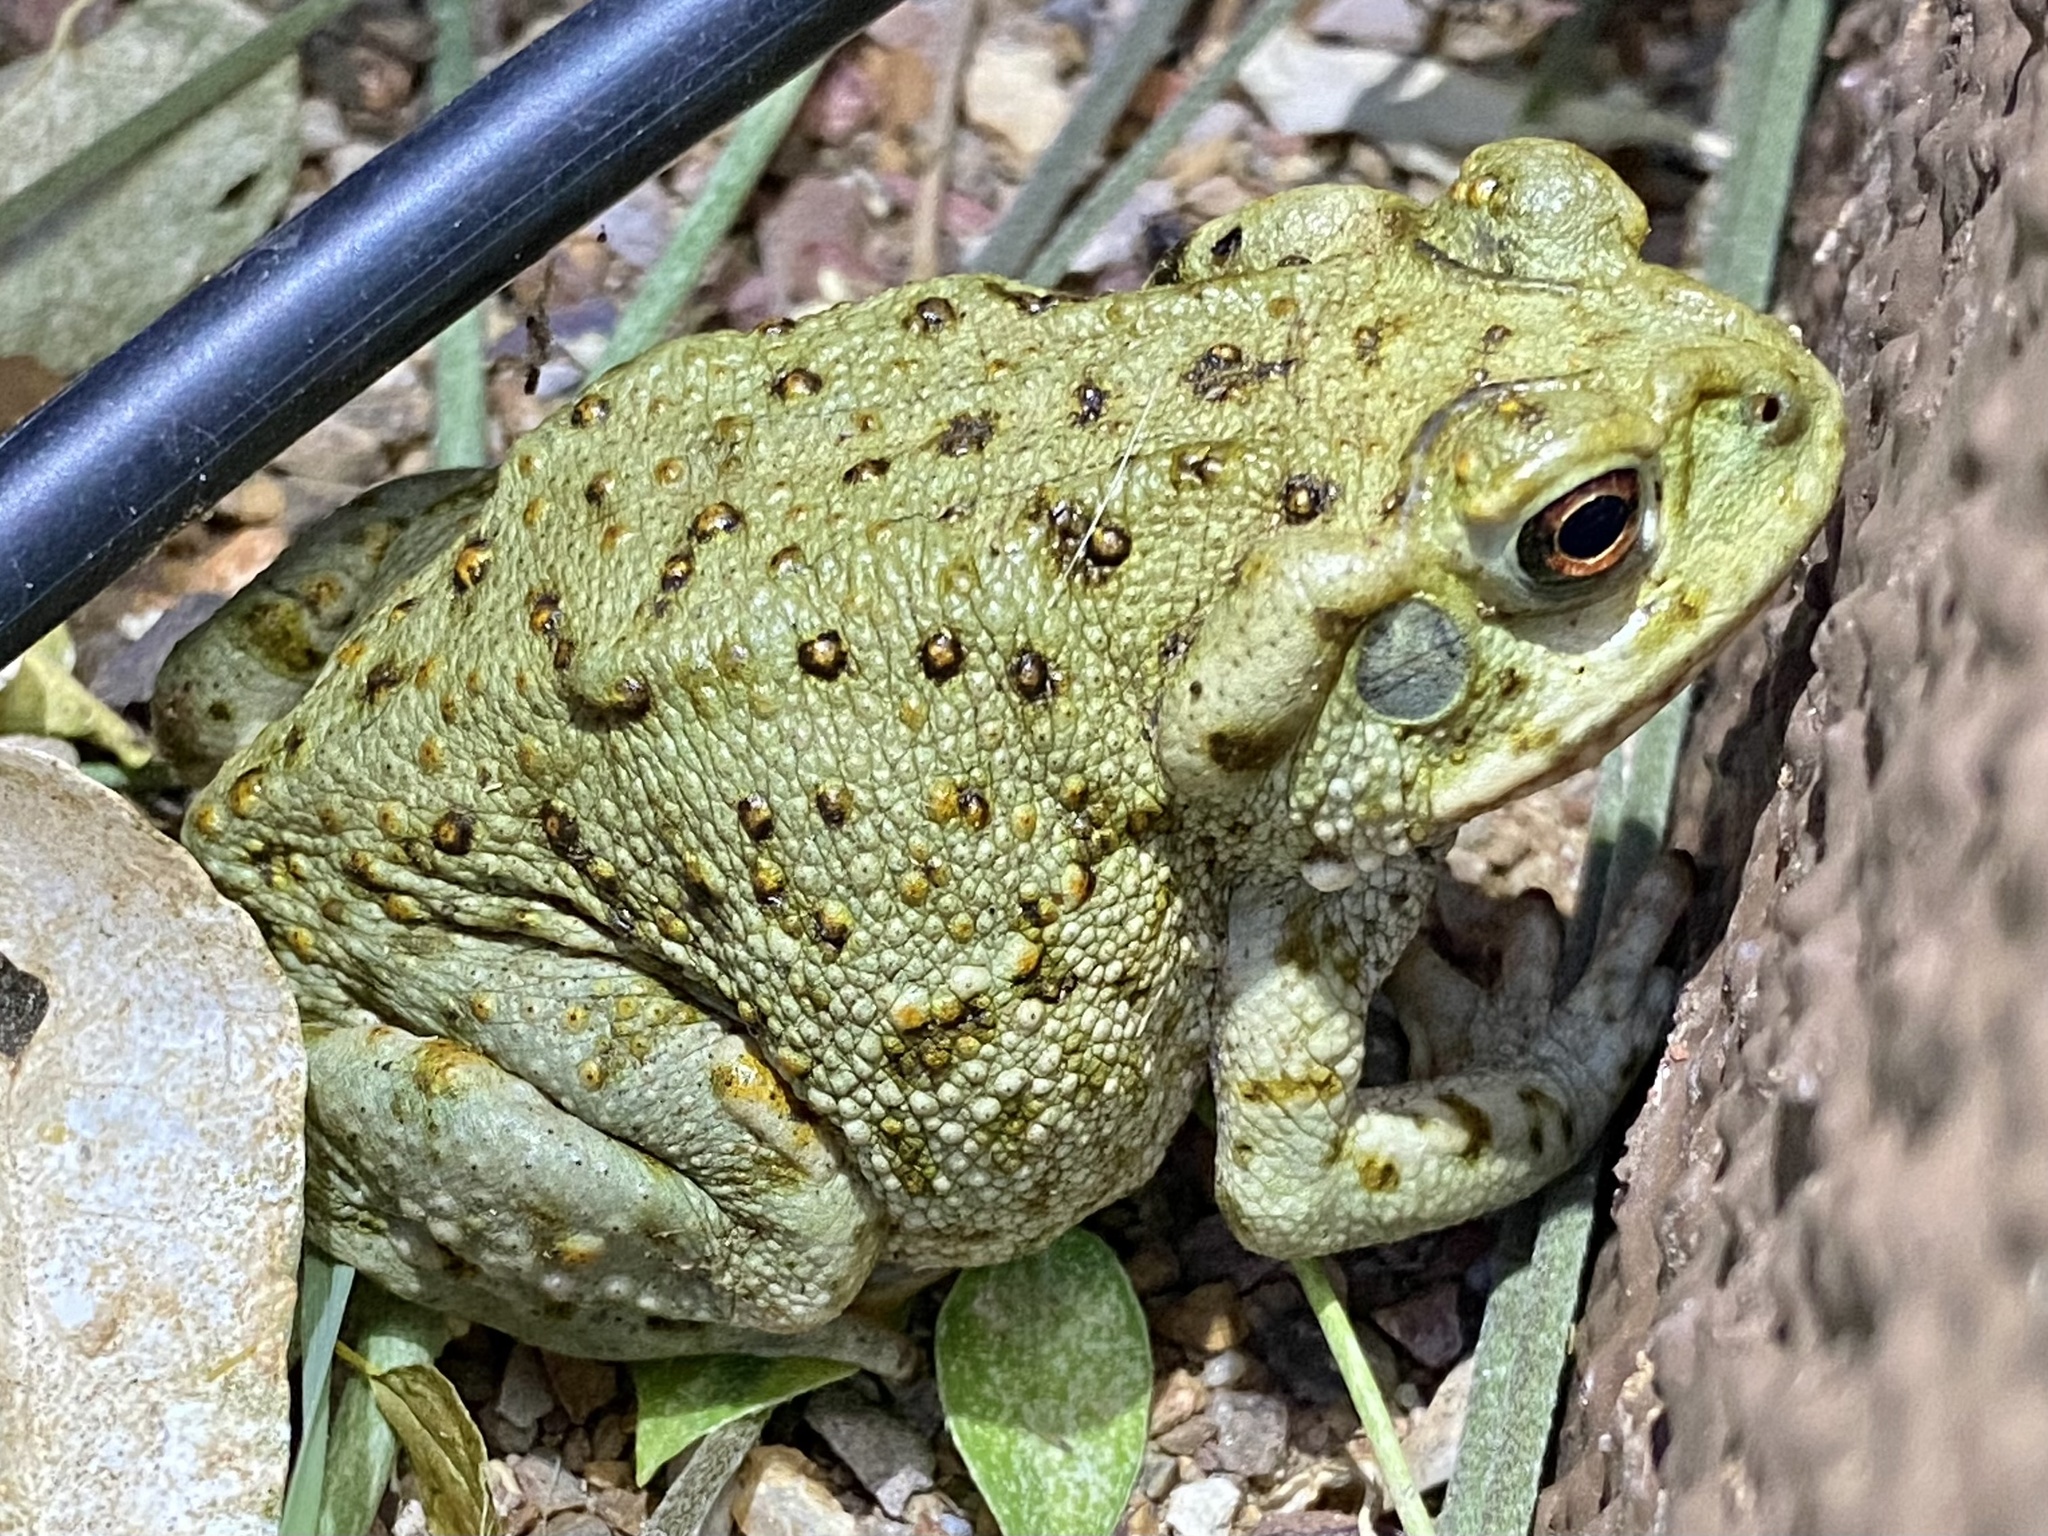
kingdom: Animalia
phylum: Chordata
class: Amphibia
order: Anura
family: Bufonidae
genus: Incilius
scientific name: Incilius alvarius
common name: Sonoran desert toad
